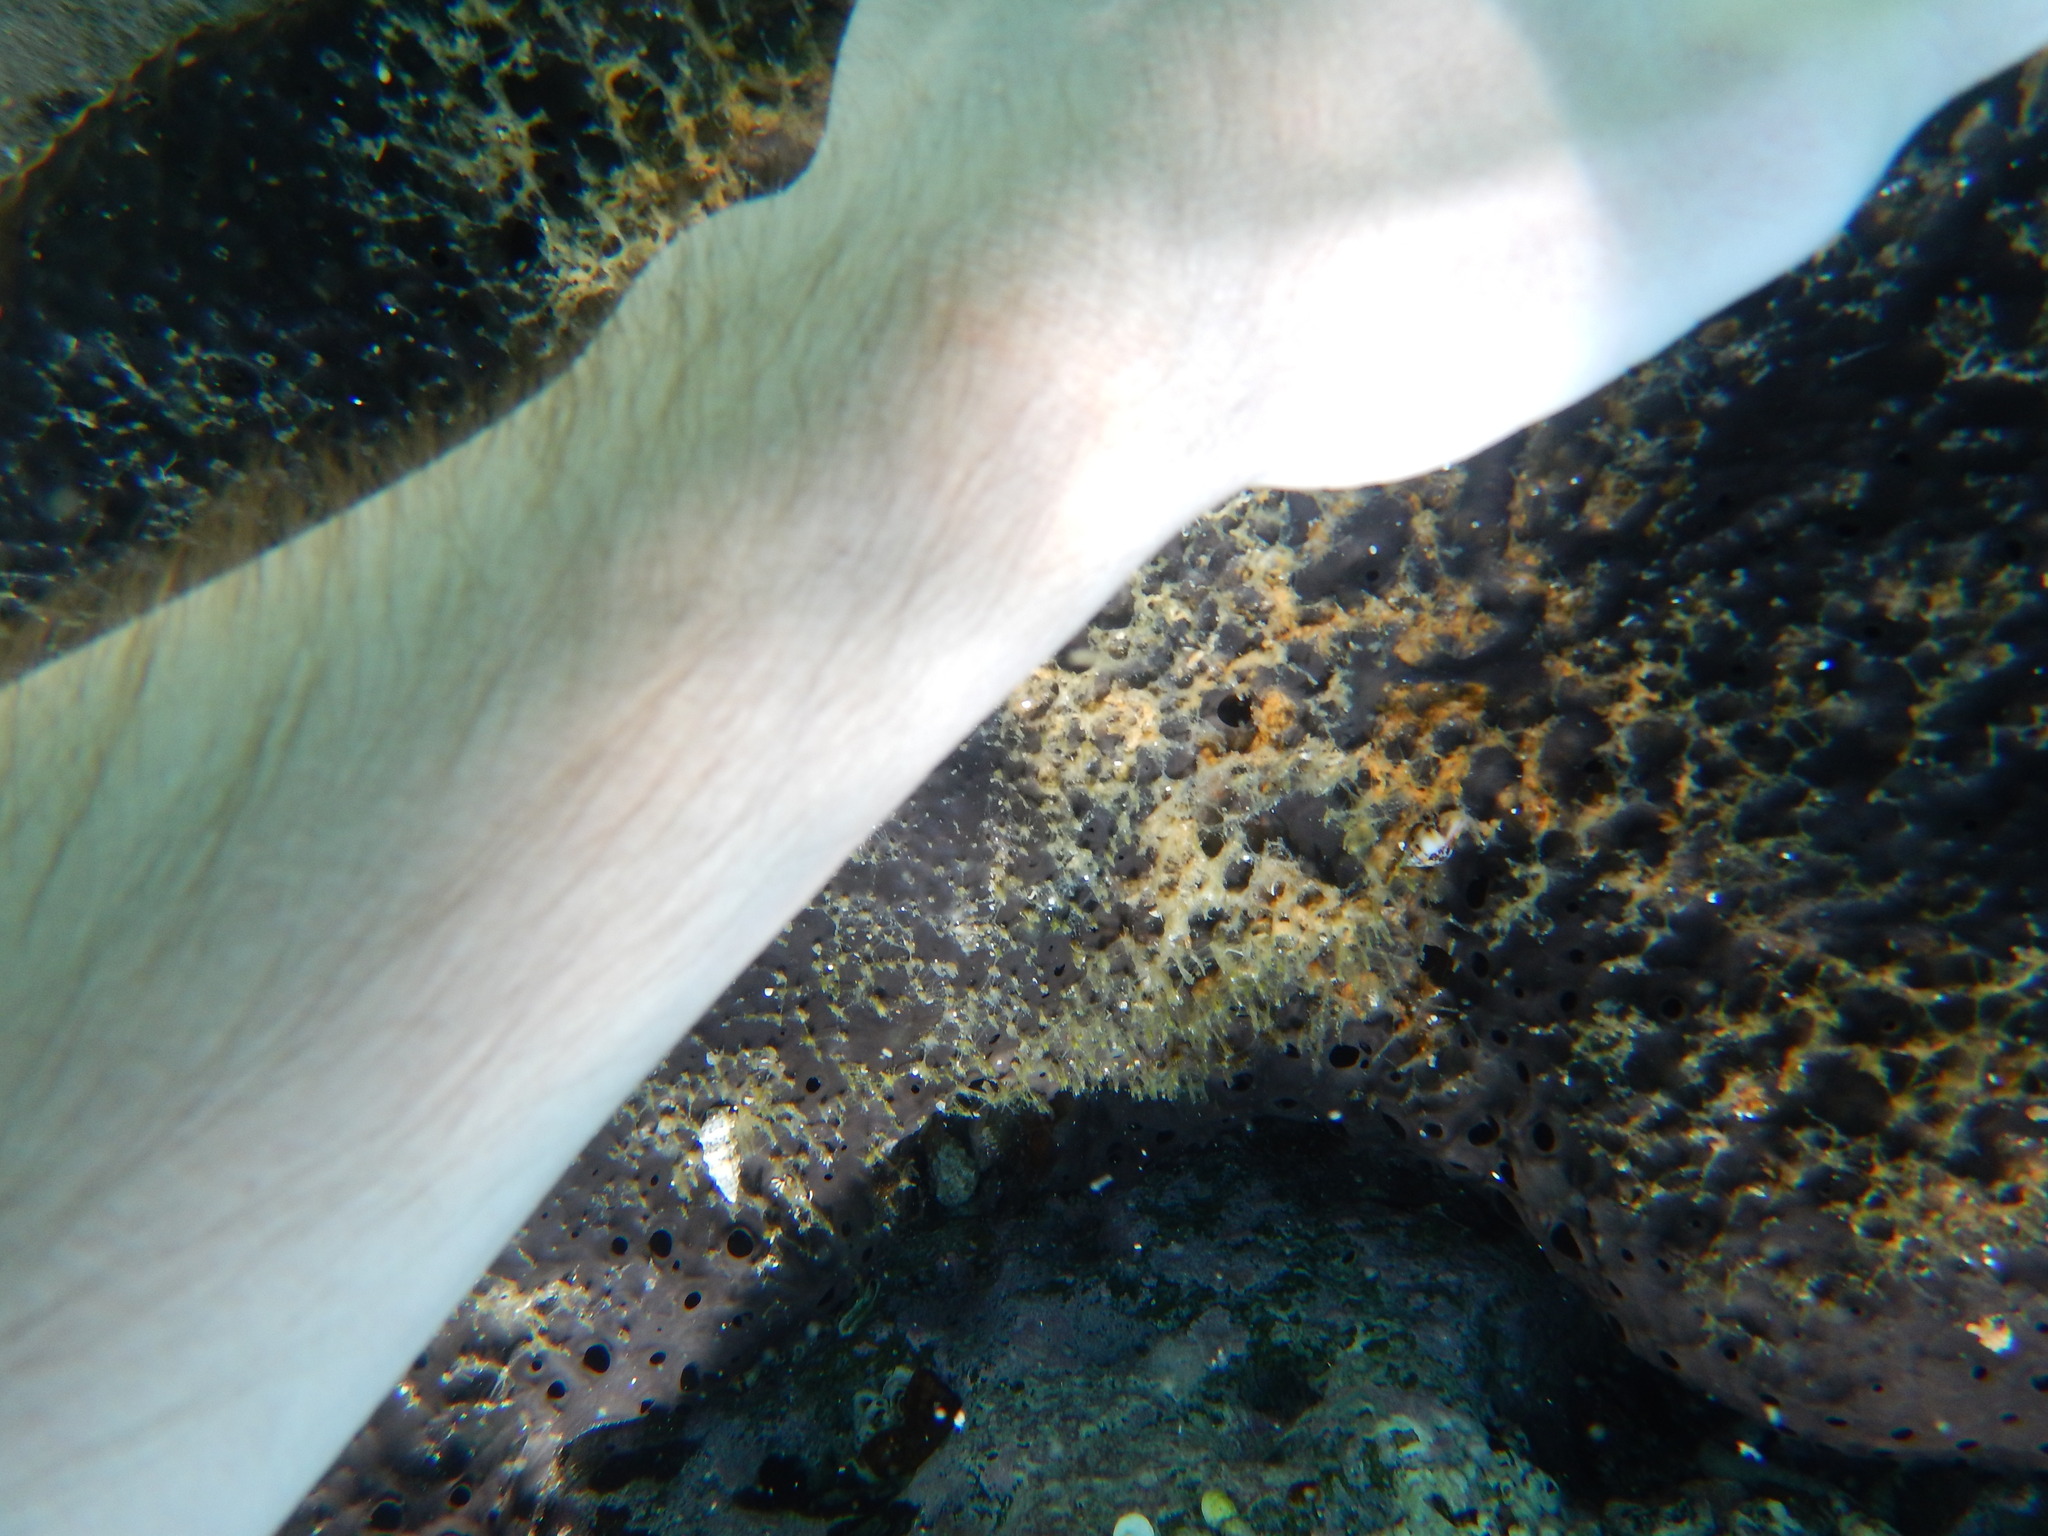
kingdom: Animalia
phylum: Porifera
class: Demospongiae
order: Dictyoceratida
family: Irciniidae
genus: Sarcotragus
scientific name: Sarcotragus spinosulus
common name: Black leather sponge
